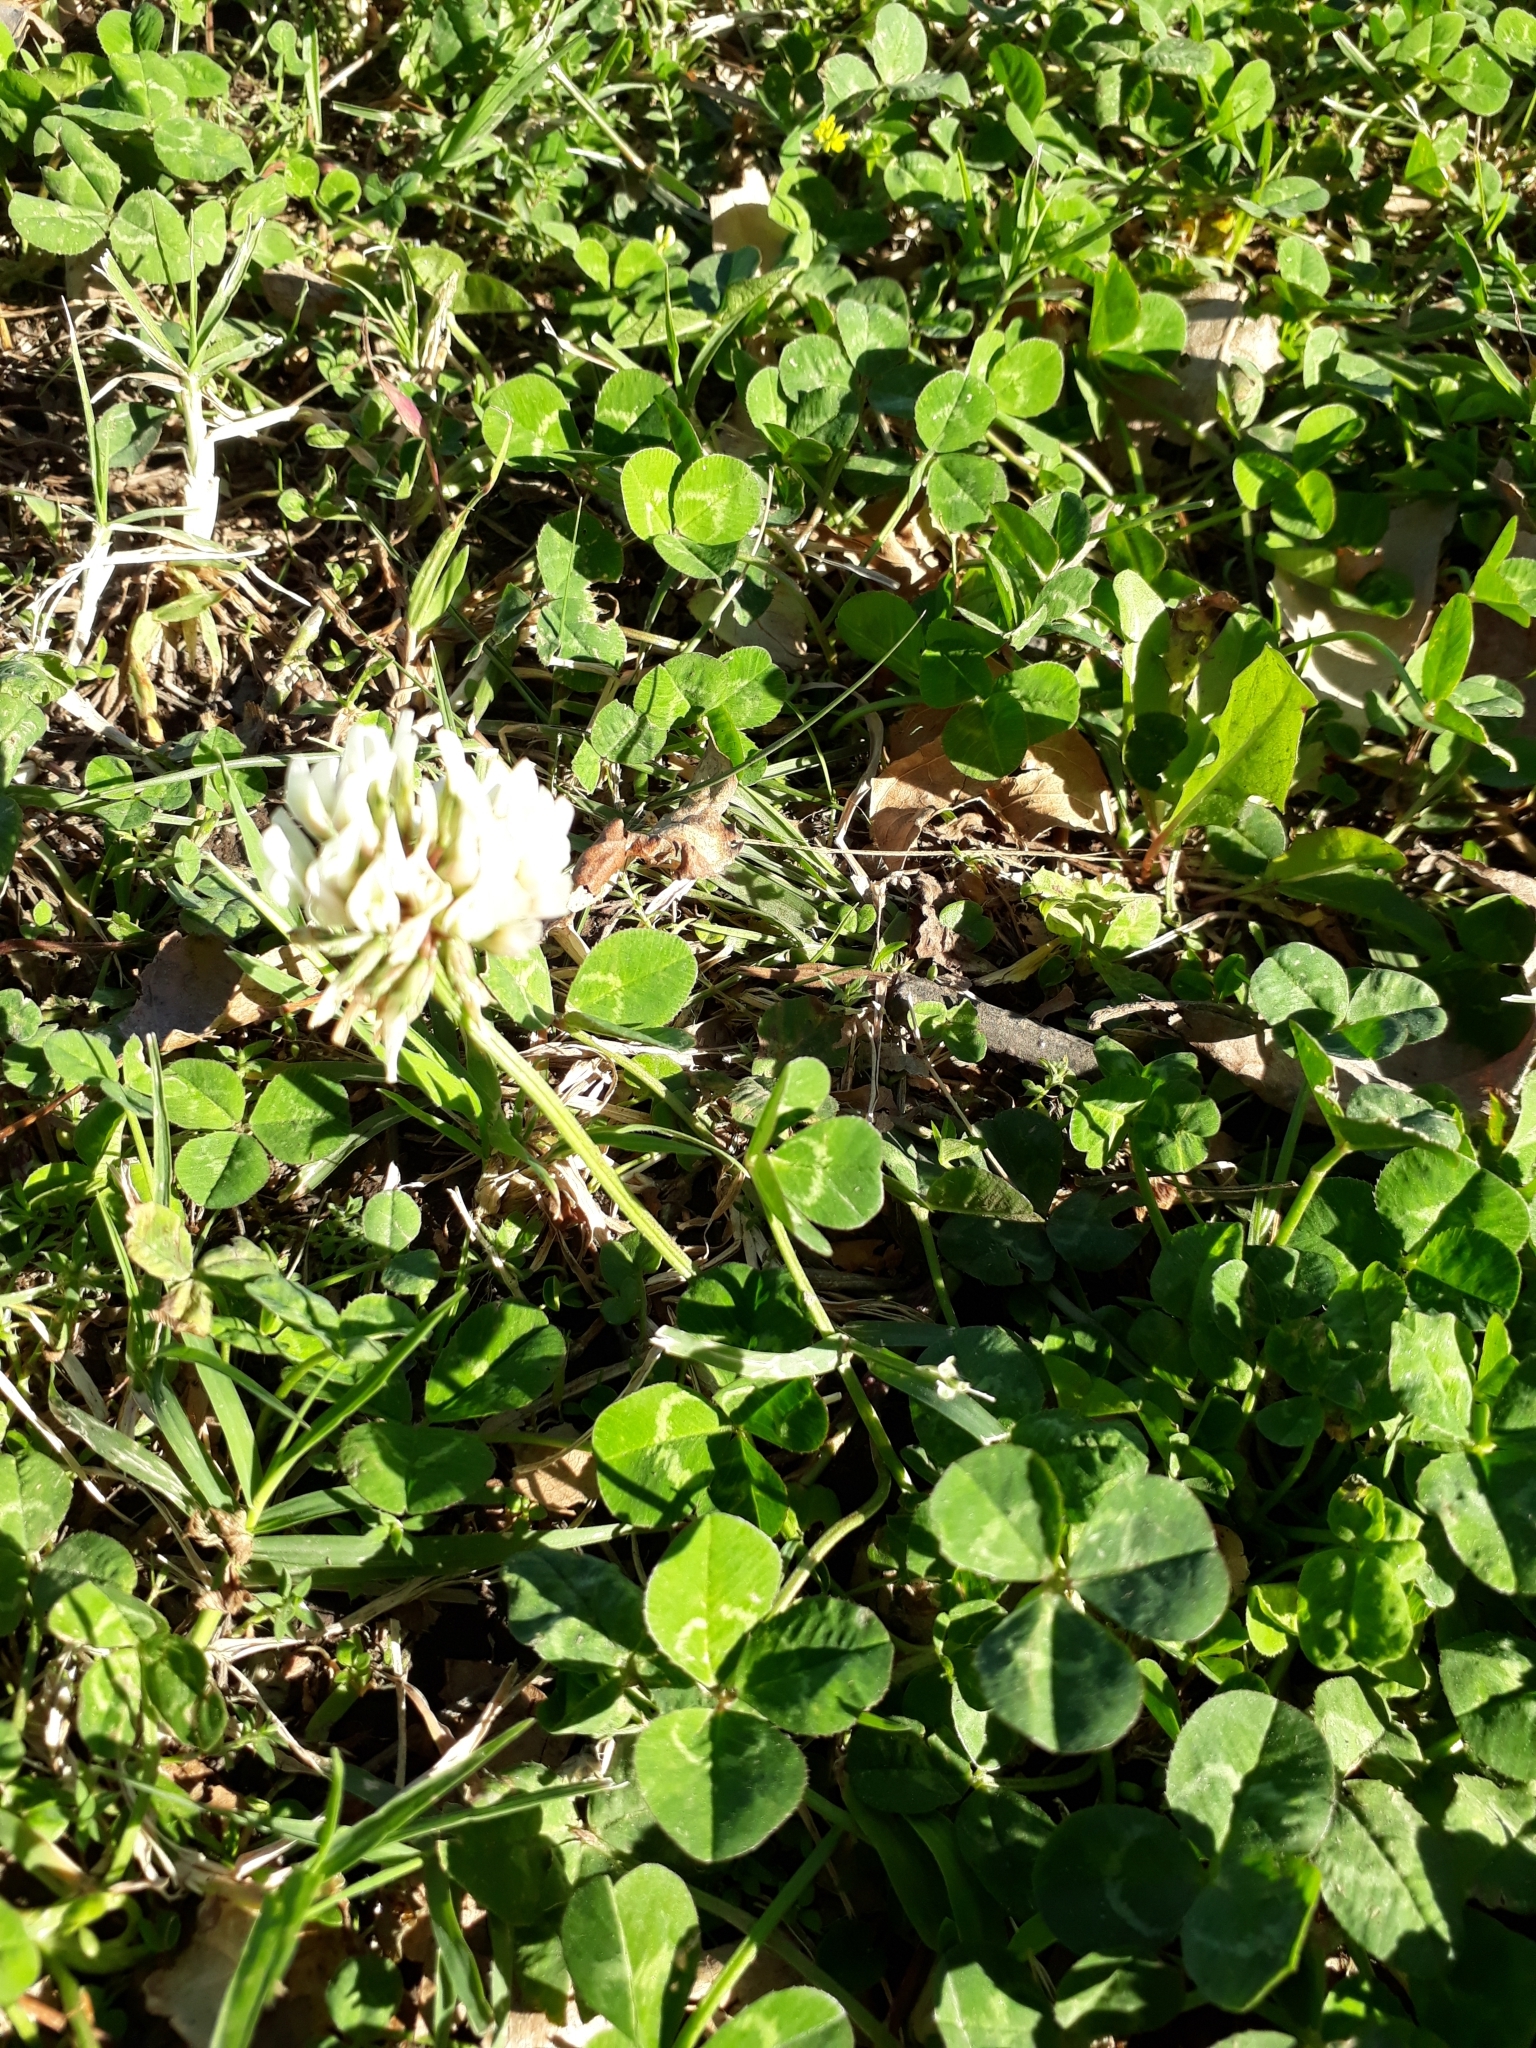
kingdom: Plantae
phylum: Tracheophyta
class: Magnoliopsida
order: Fabales
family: Fabaceae
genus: Trifolium
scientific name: Trifolium repens
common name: White clover
